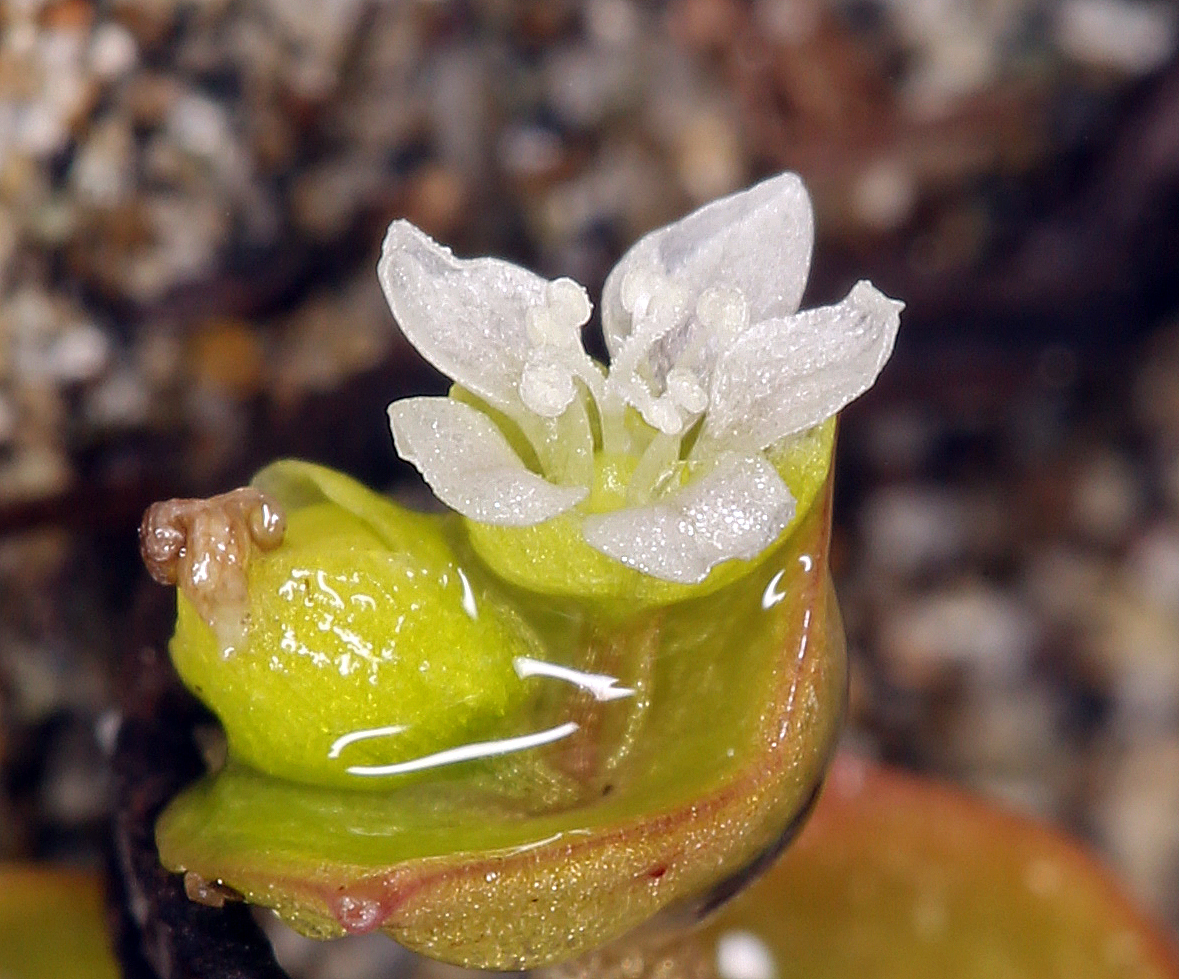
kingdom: Plantae
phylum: Tracheophyta
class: Magnoliopsida
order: Caryophyllales
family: Montiaceae
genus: Claytonia
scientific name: Claytonia rubra
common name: Erubescent miner's-lettuce
